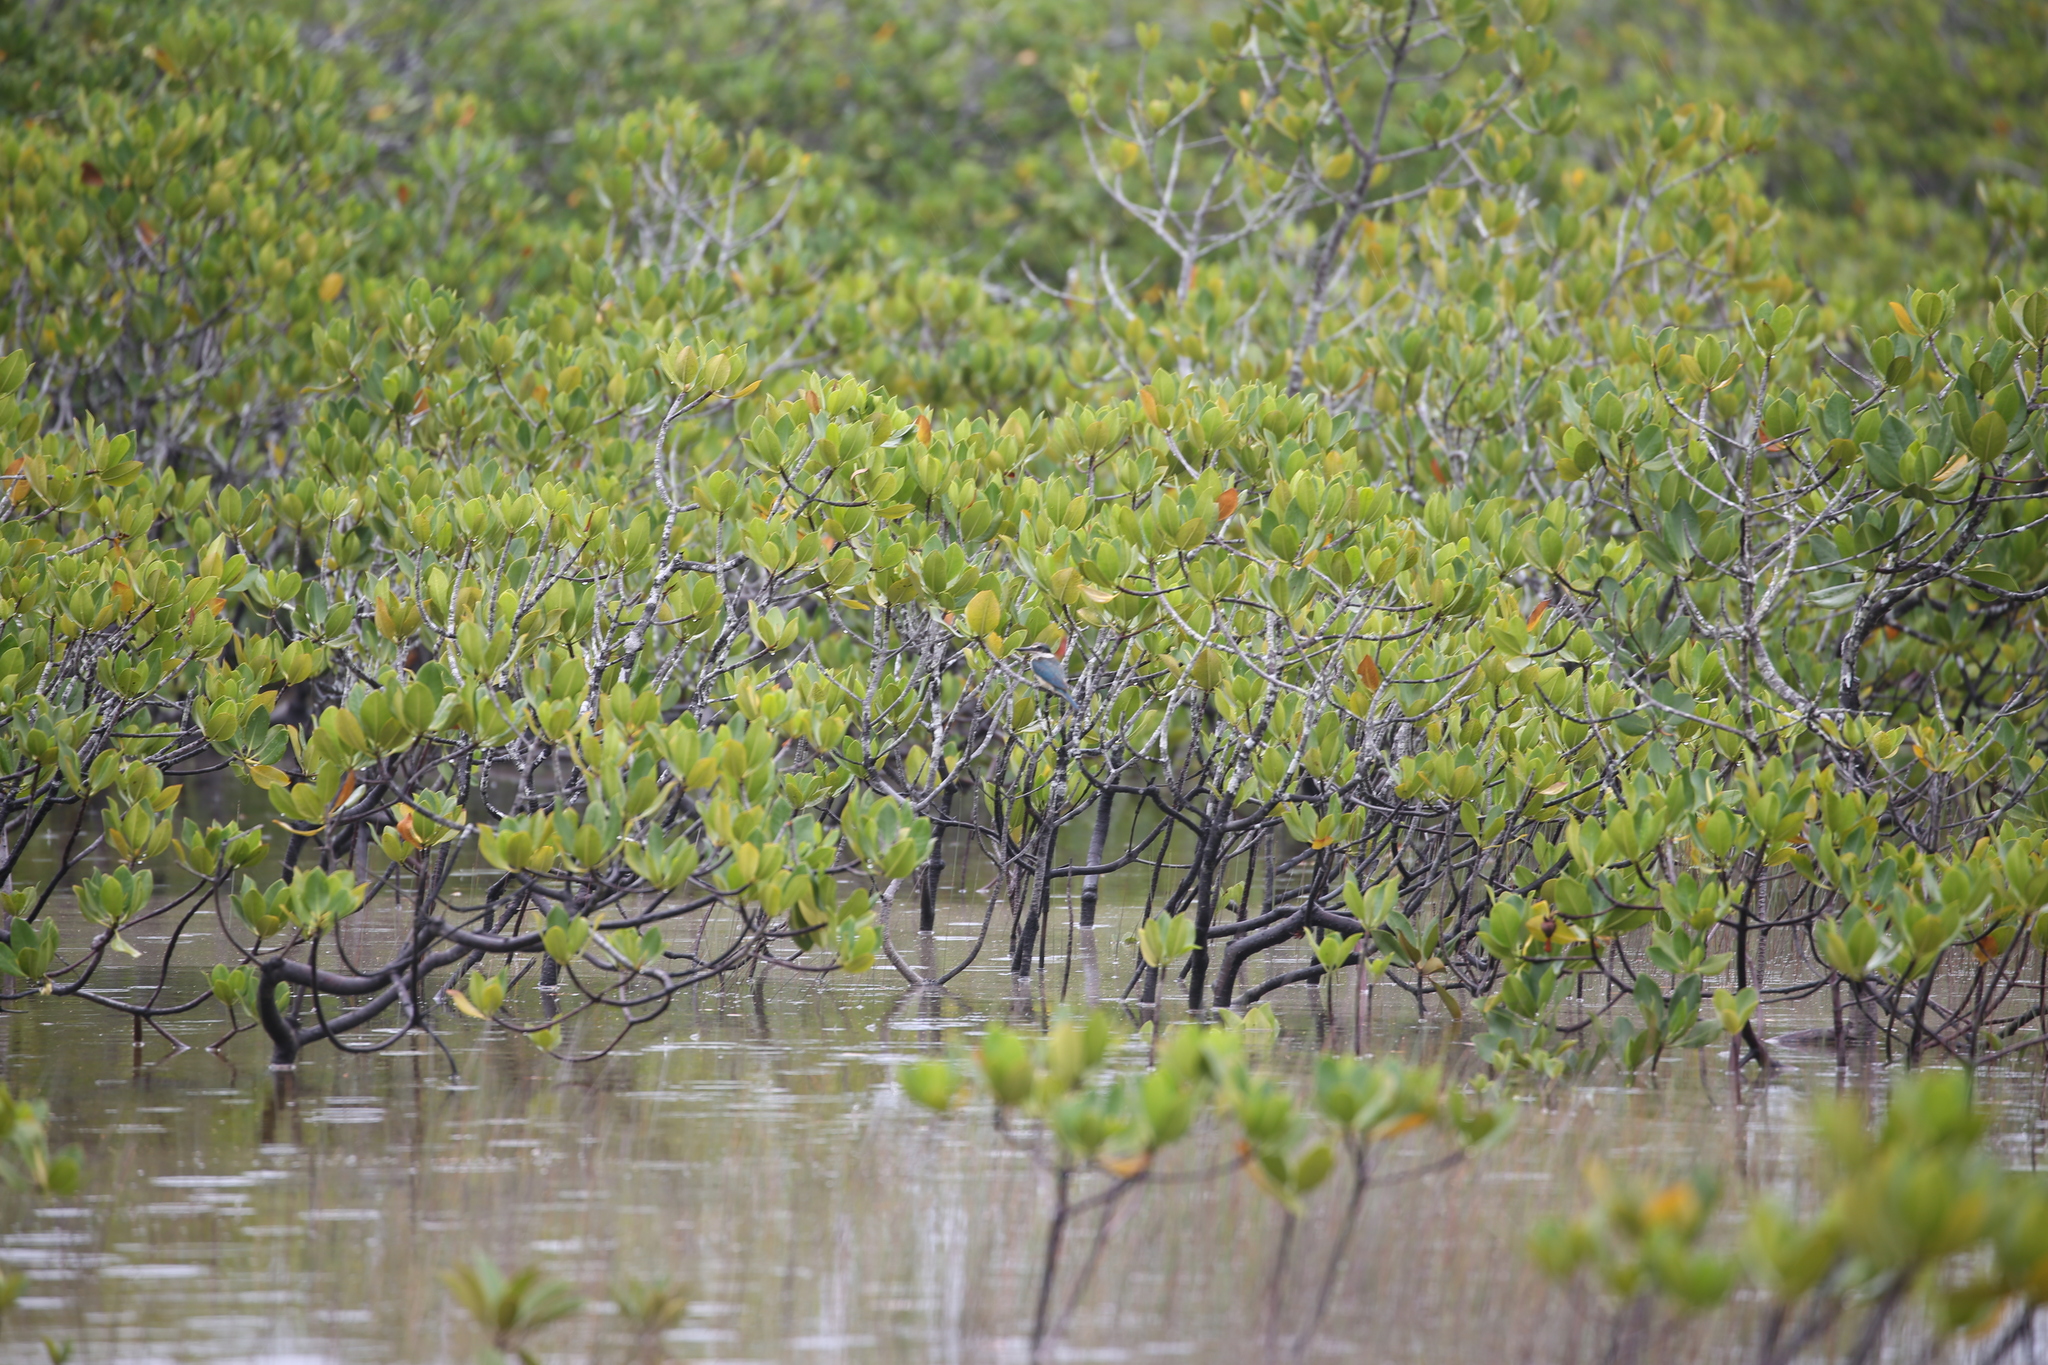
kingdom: Animalia
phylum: Chordata
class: Aves
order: Coraciiformes
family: Alcedinidae
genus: Todiramphus
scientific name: Todiramphus sanctus
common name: Sacred kingfisher
